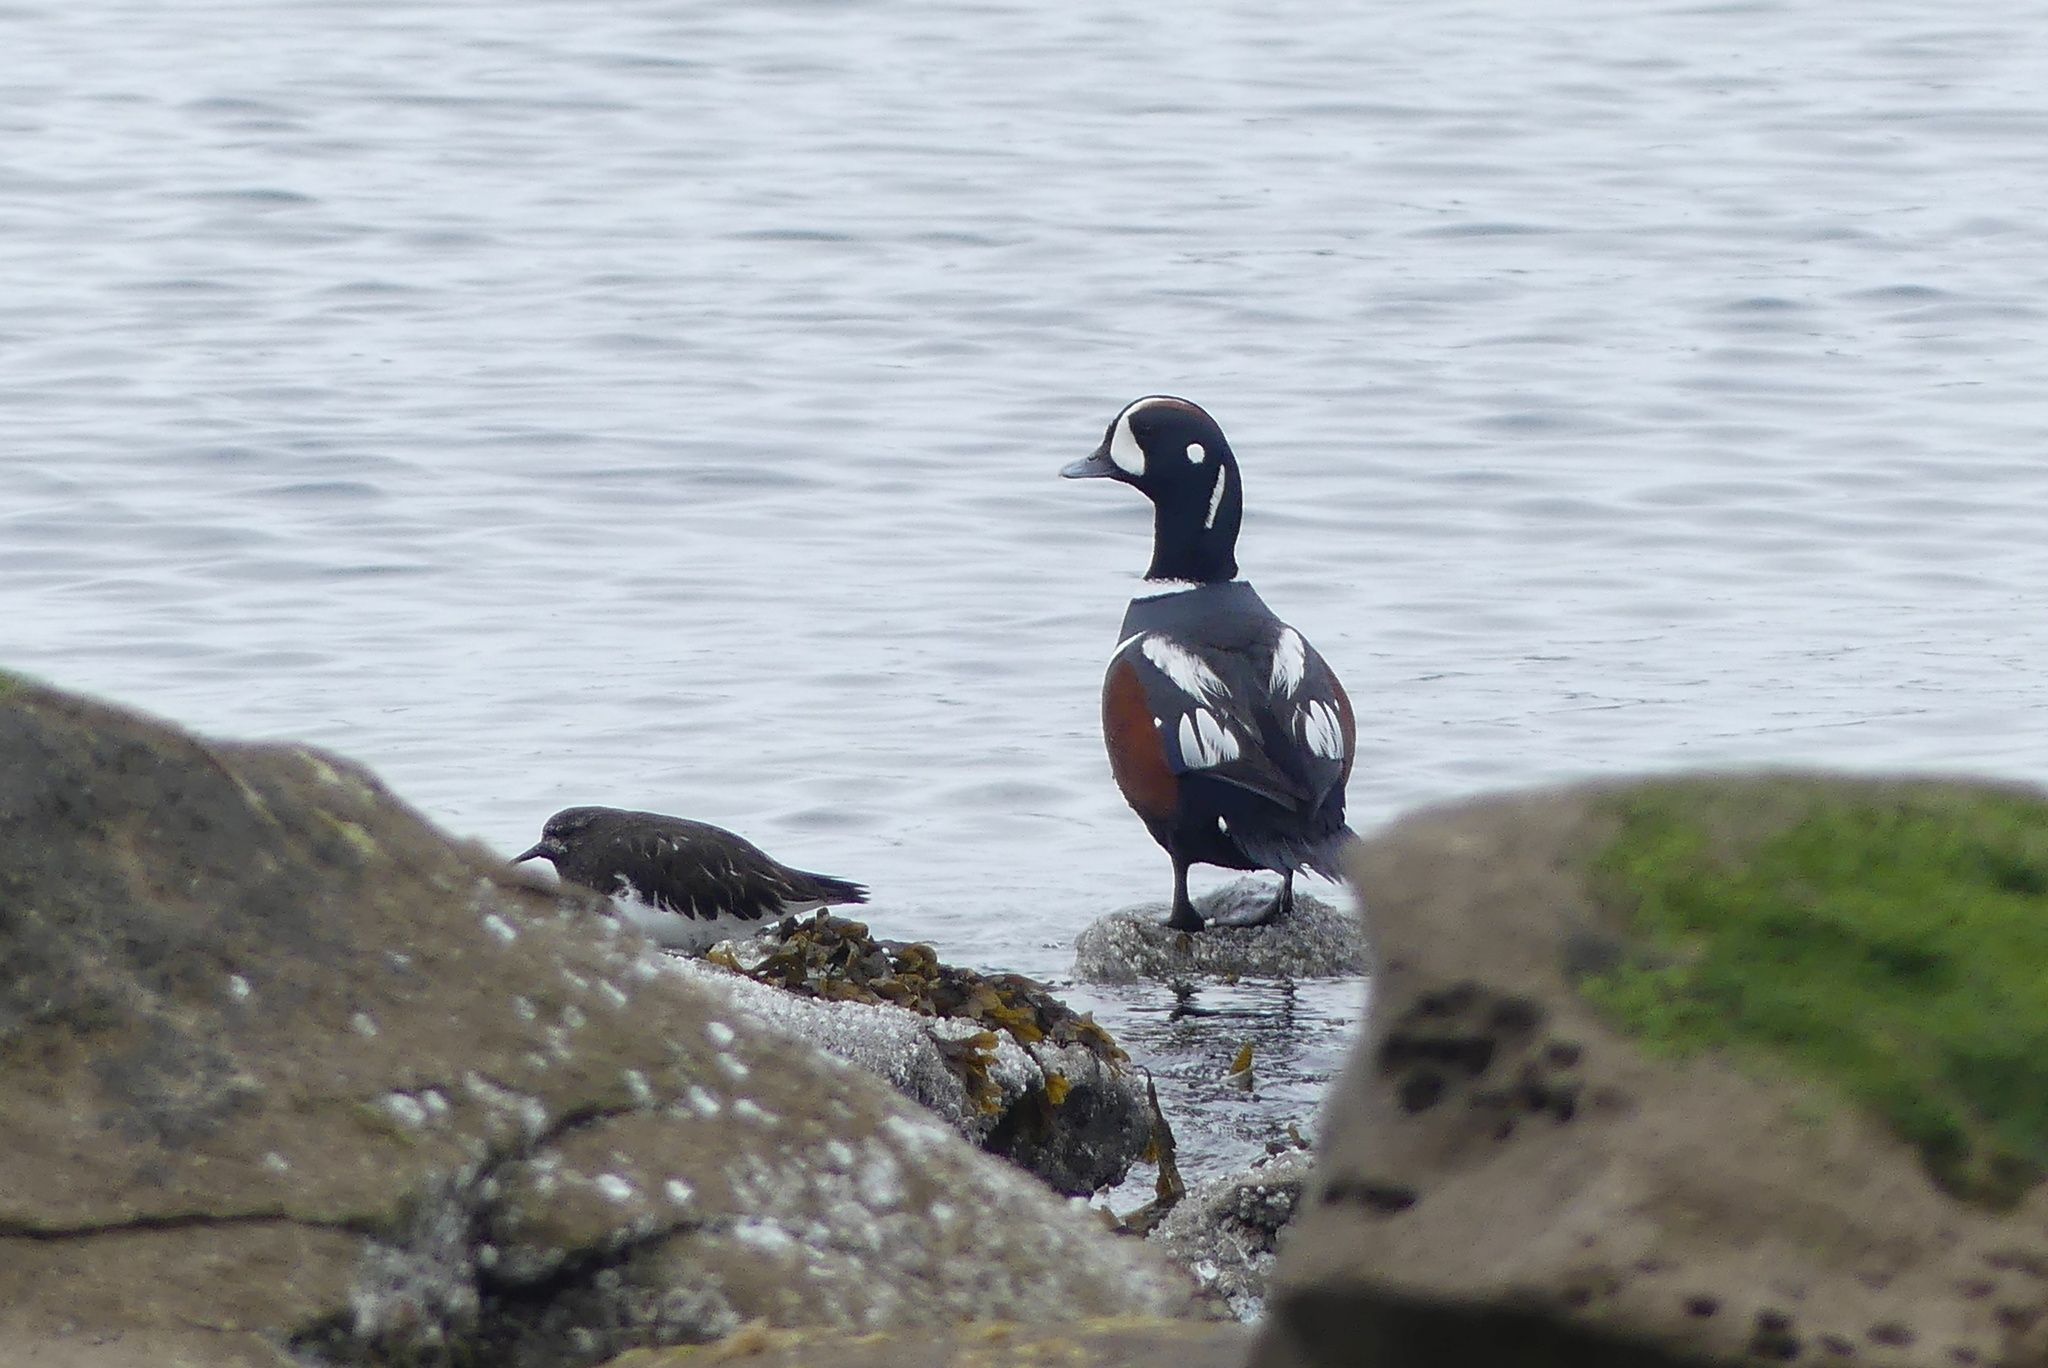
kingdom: Animalia
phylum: Chordata
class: Aves
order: Charadriiformes
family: Scolopacidae
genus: Arenaria
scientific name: Arenaria melanocephala
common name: Black turnstone
